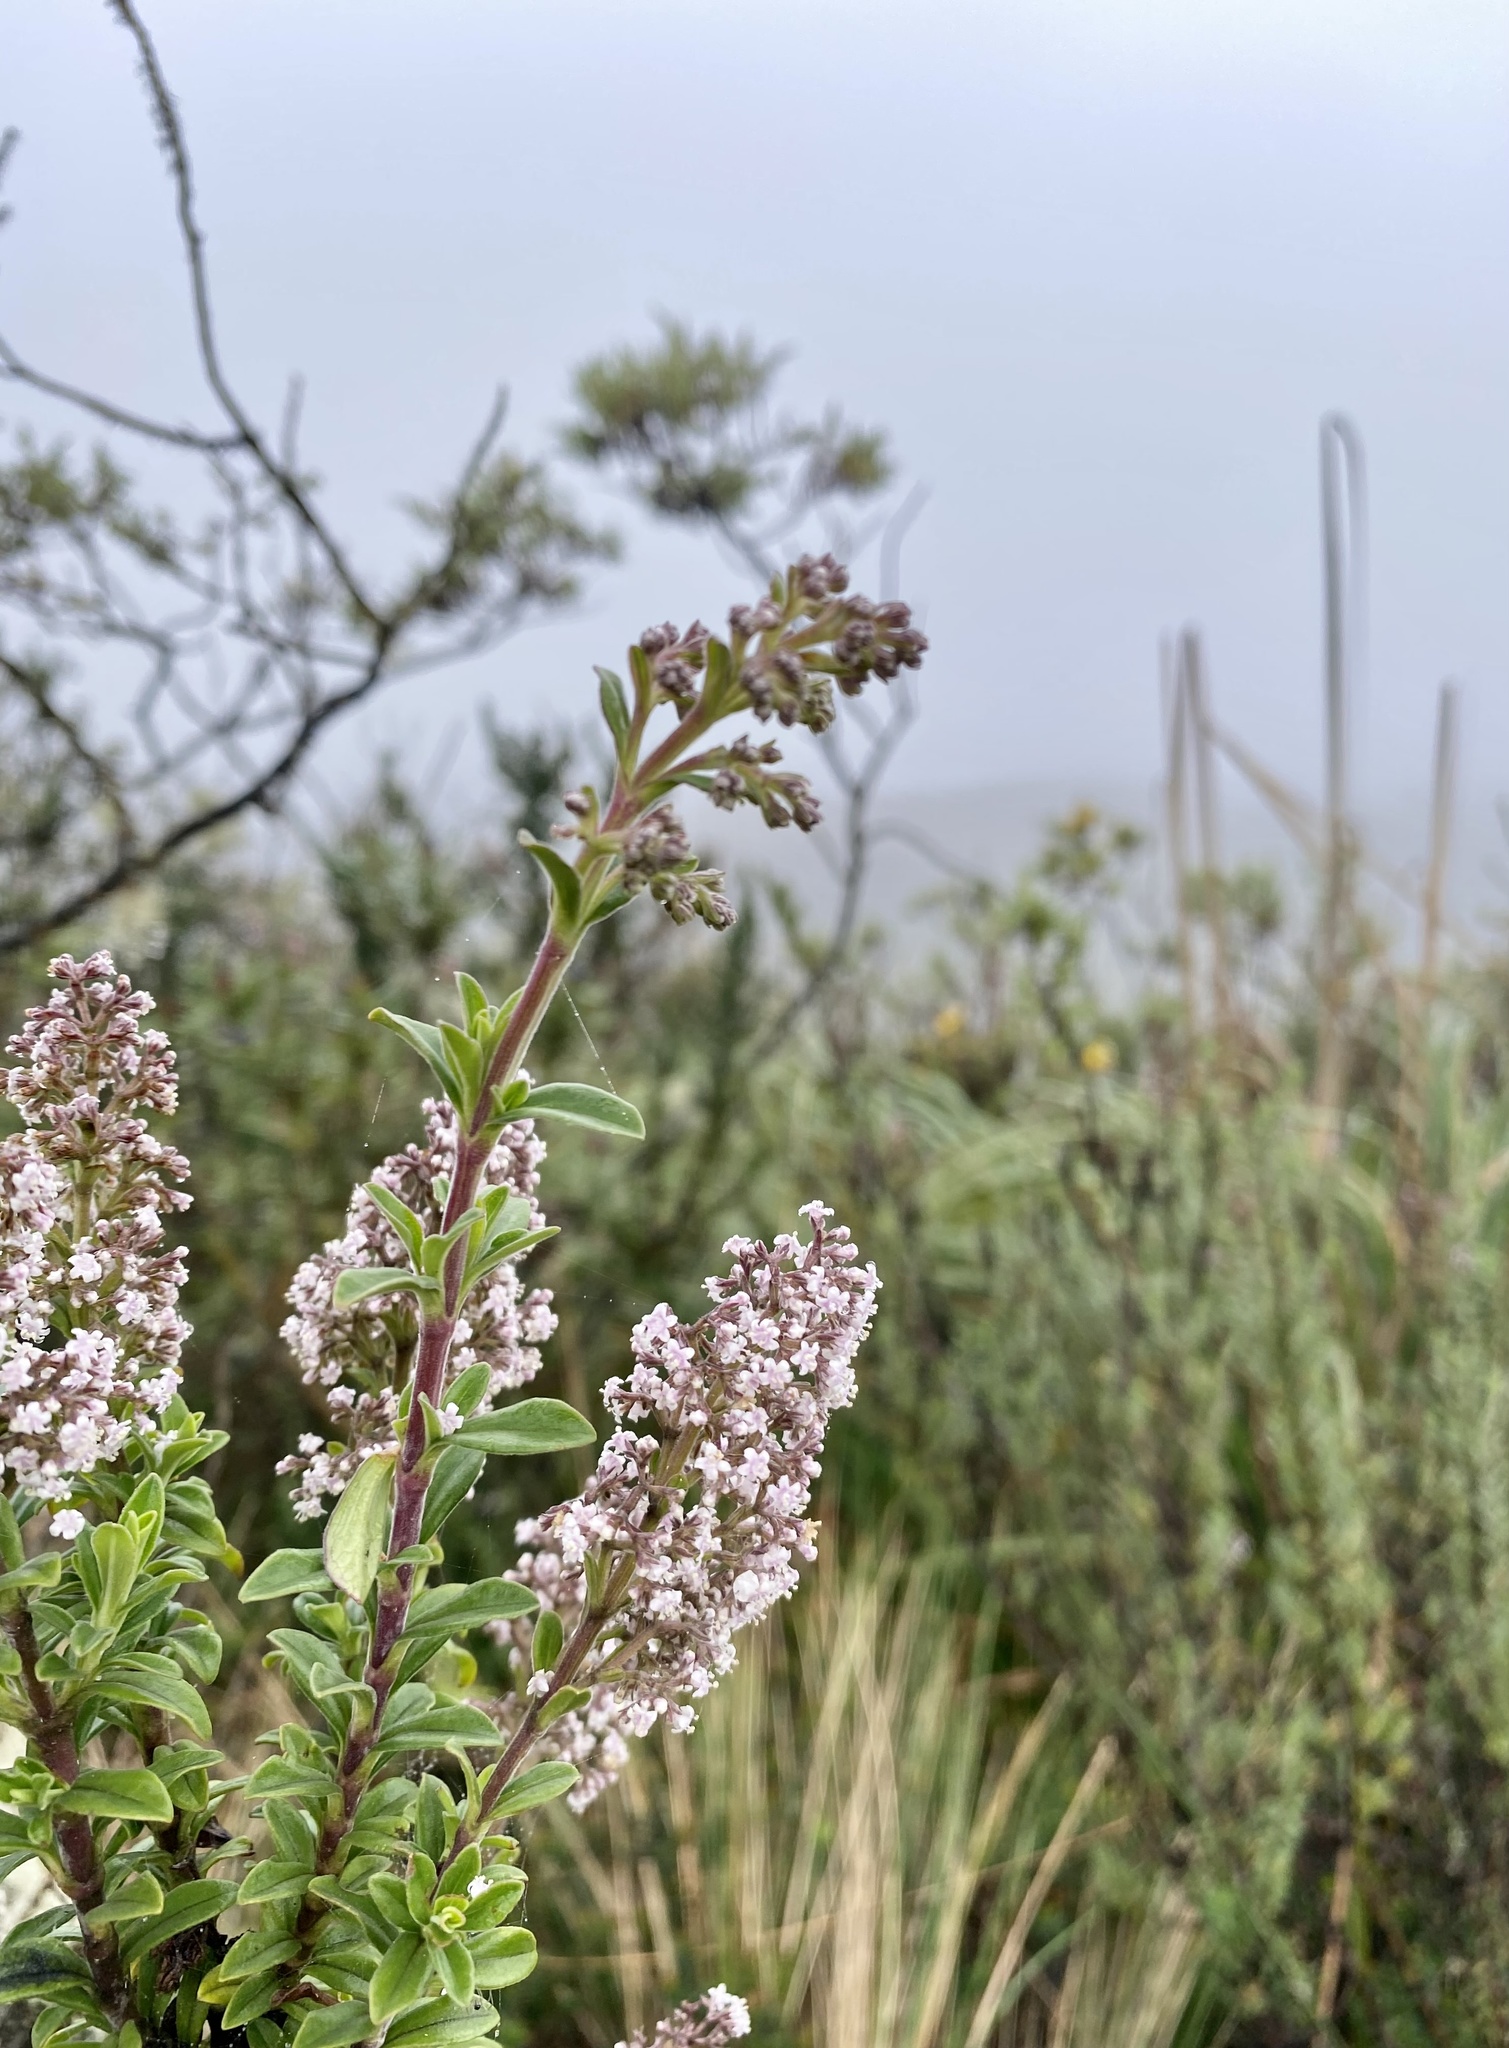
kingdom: Plantae
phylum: Tracheophyta
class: Magnoliopsida
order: Dipsacales
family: Caprifoliaceae
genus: Valeriana
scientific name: Valeriana microphylla
